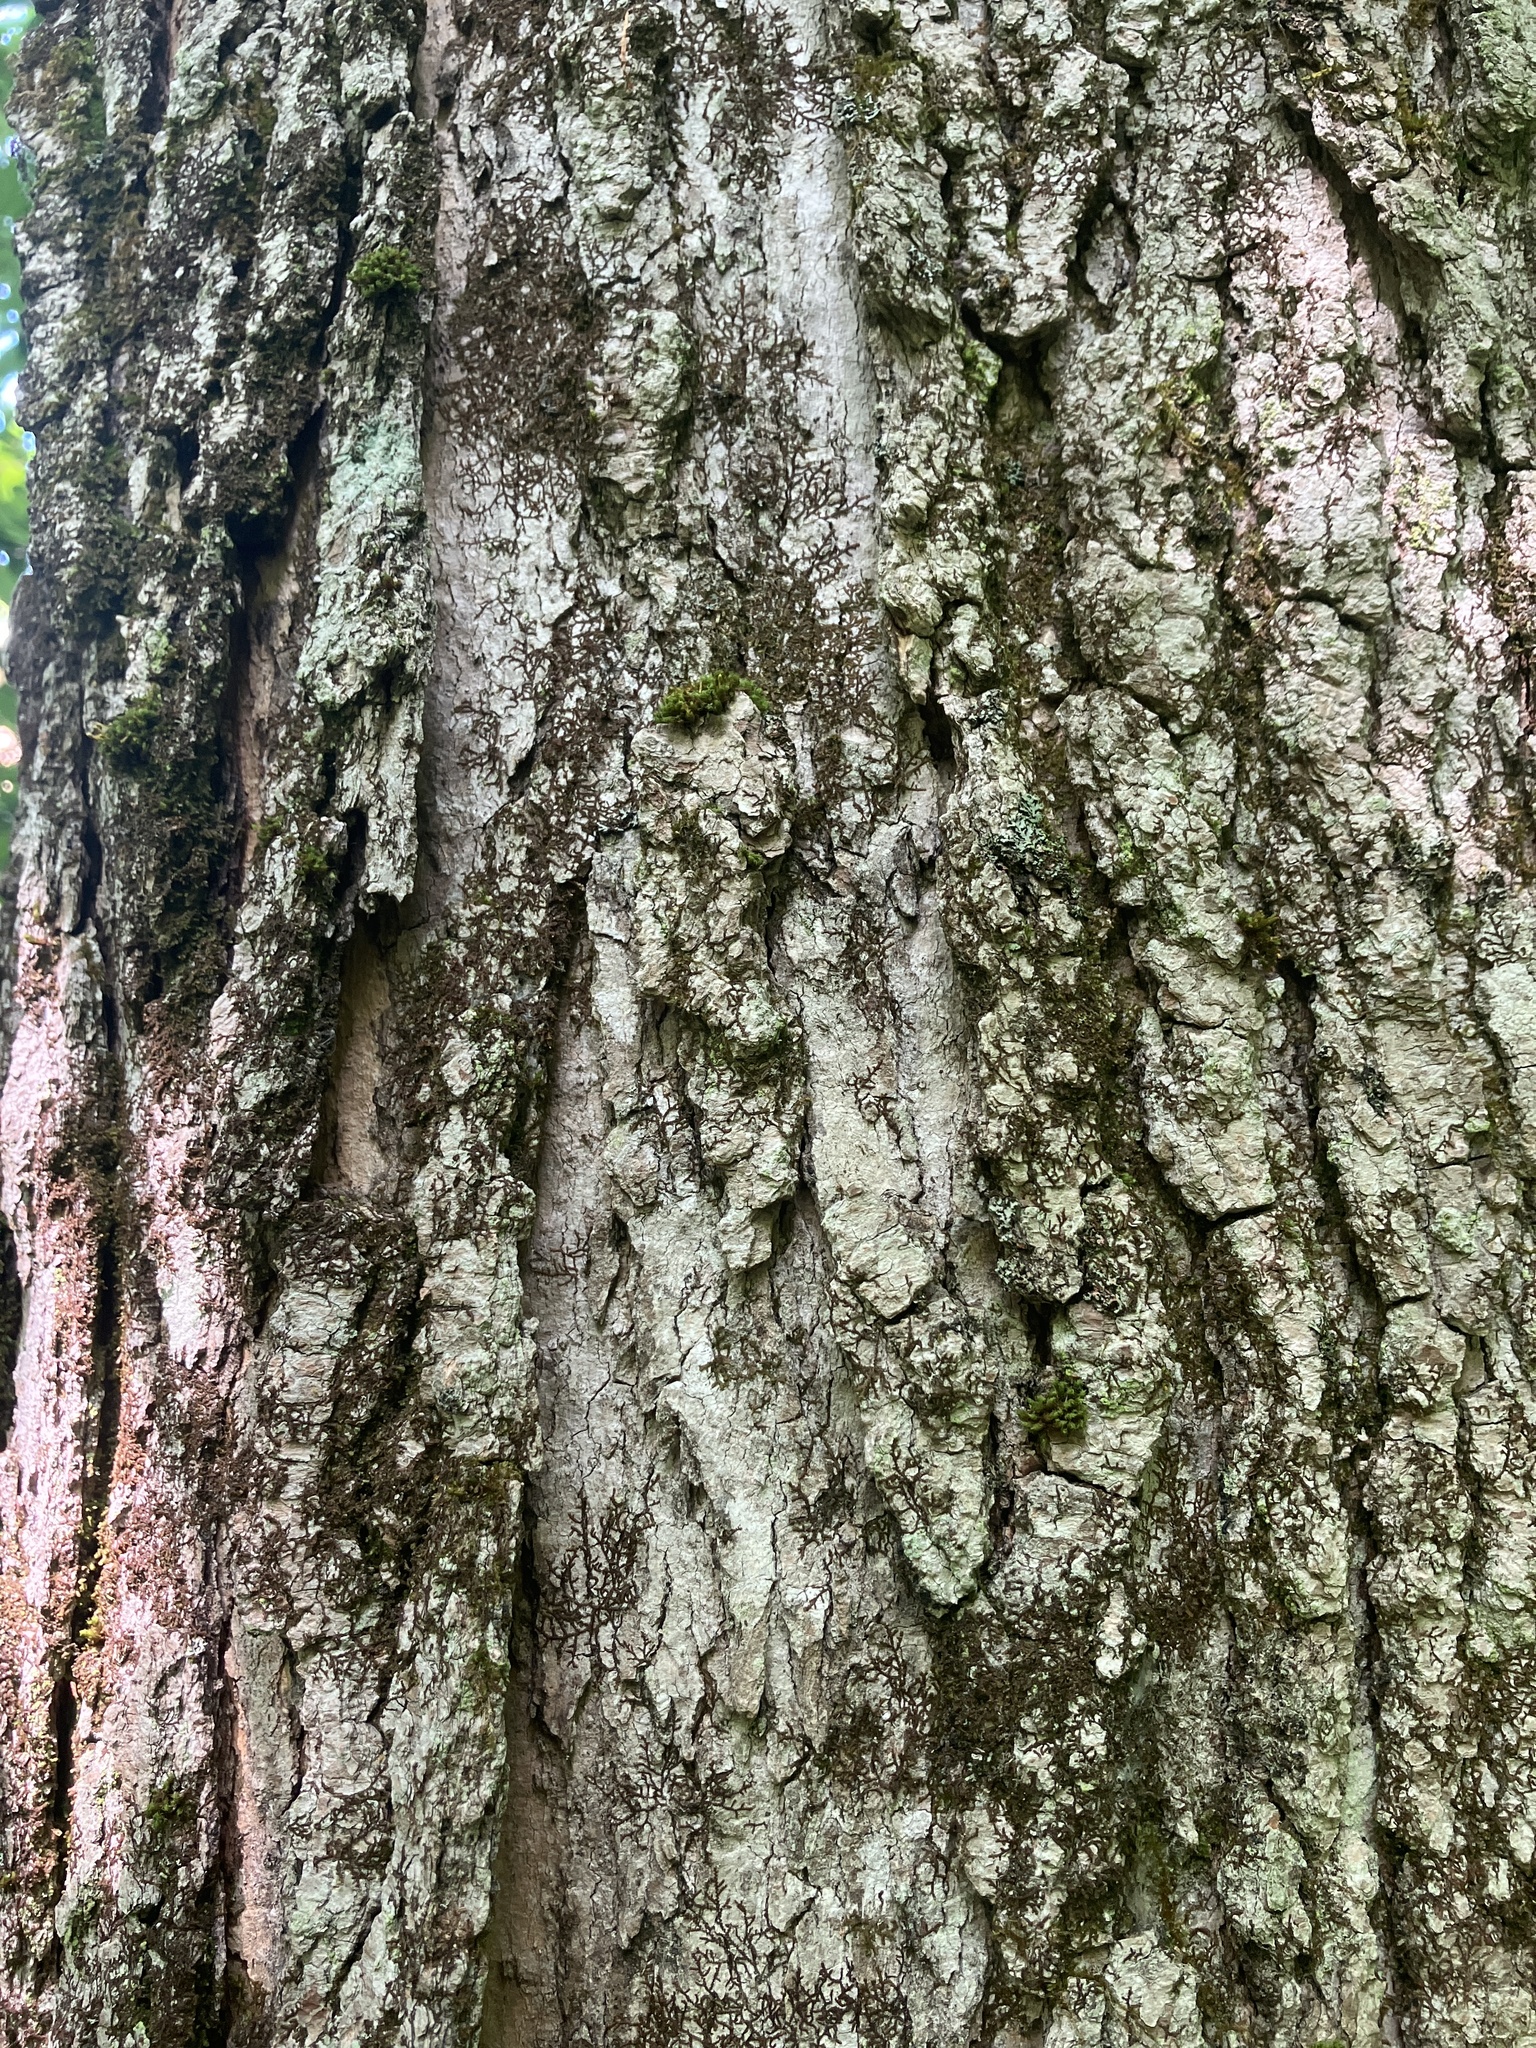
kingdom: Plantae
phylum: Tracheophyta
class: Magnoliopsida
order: Sapindales
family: Sapindaceae
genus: Acer
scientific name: Acer saccharum
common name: Sugar maple
